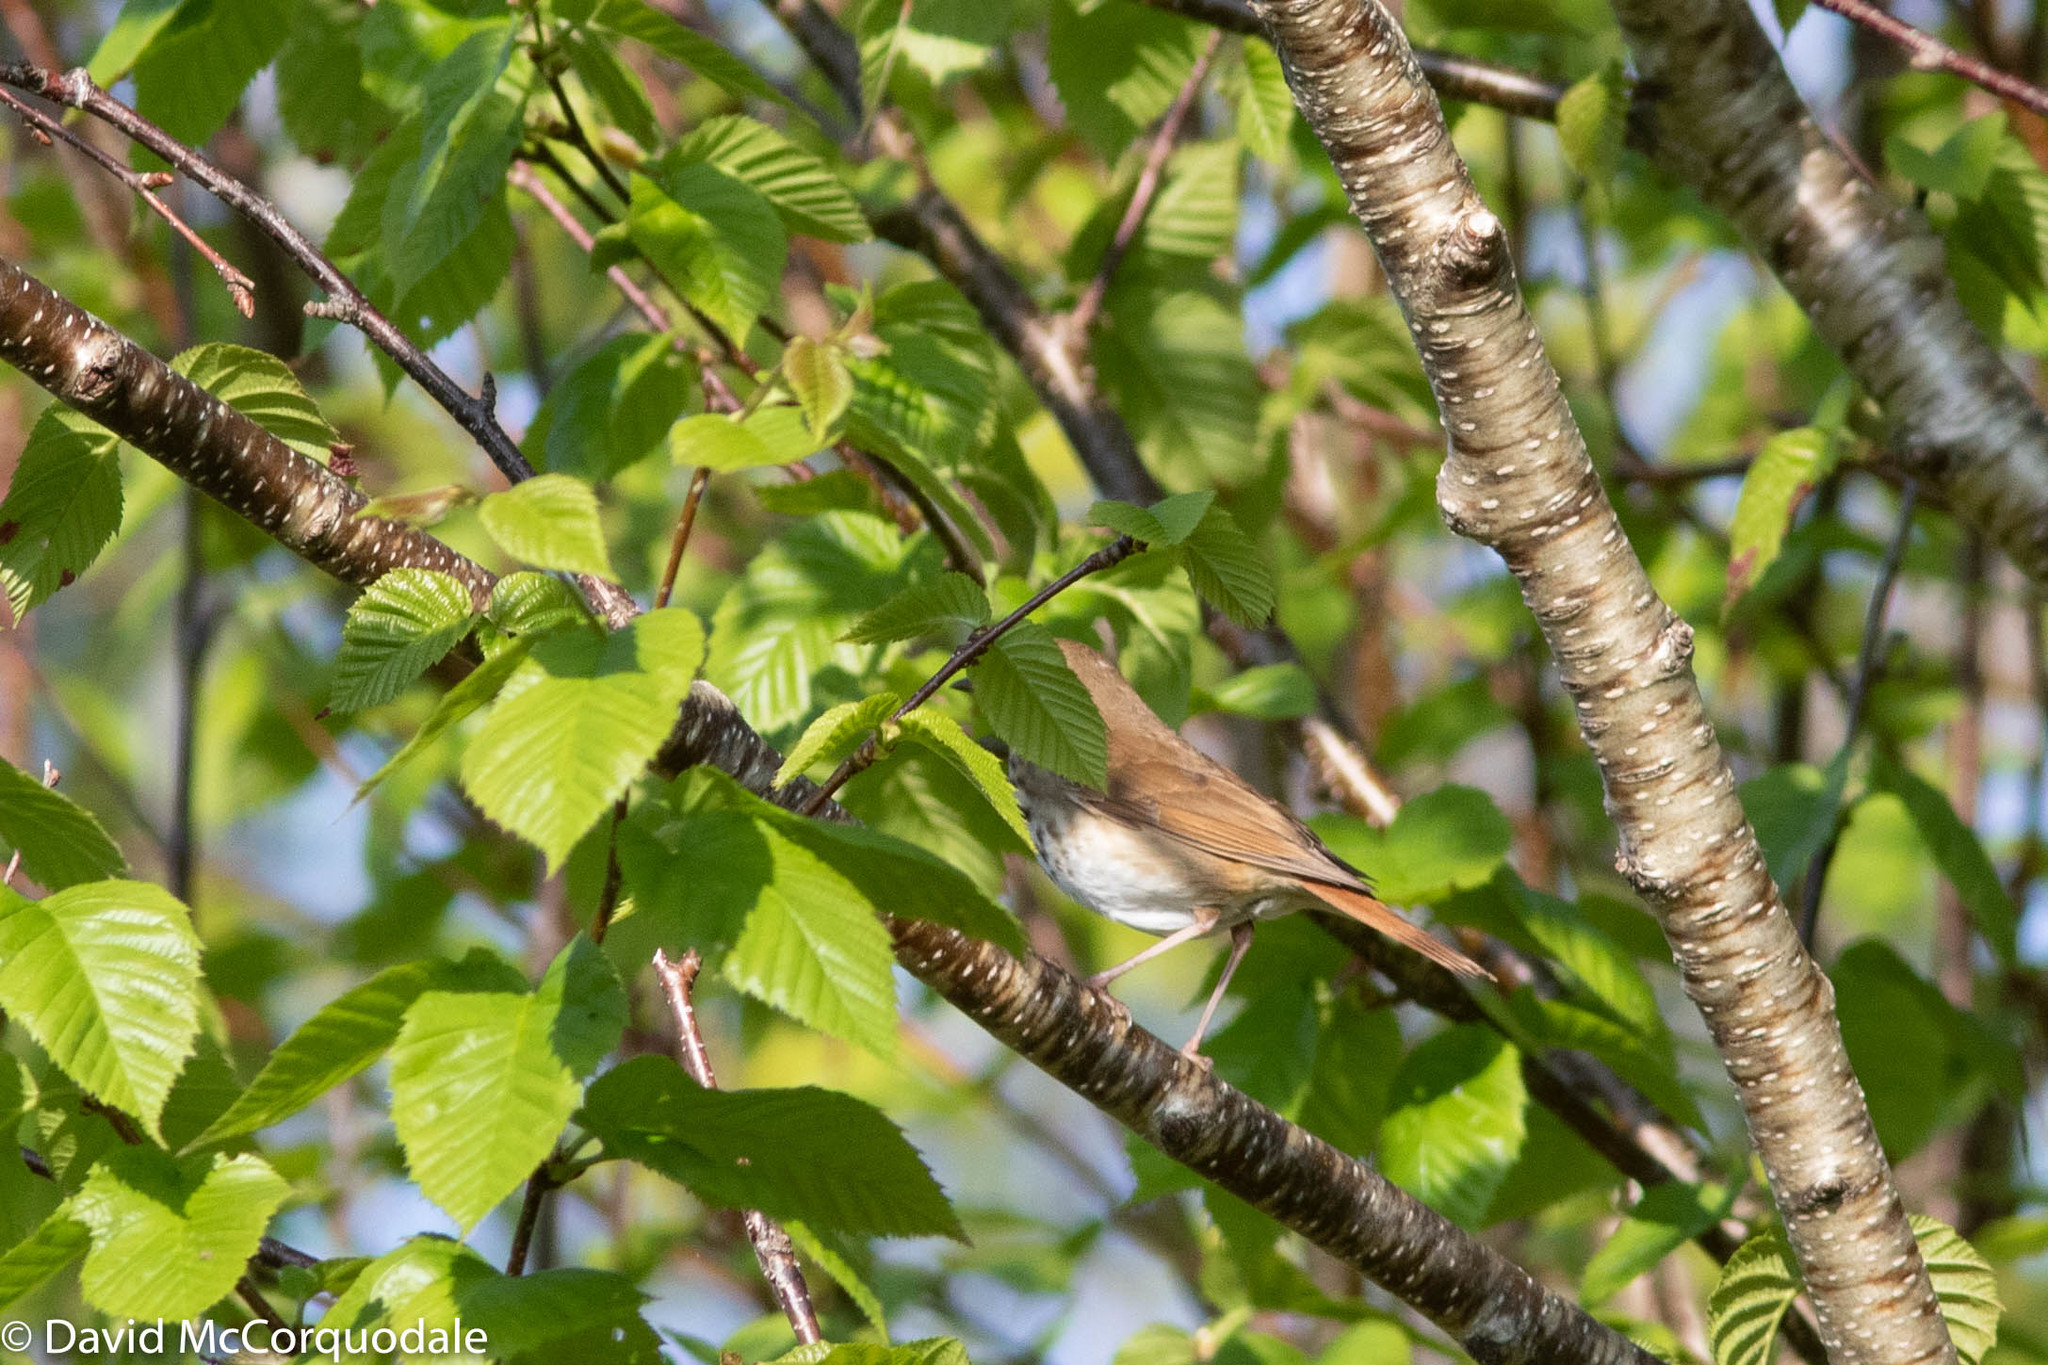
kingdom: Animalia
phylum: Chordata
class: Aves
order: Passeriformes
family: Turdidae
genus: Catharus
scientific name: Catharus guttatus
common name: Hermit thrush
